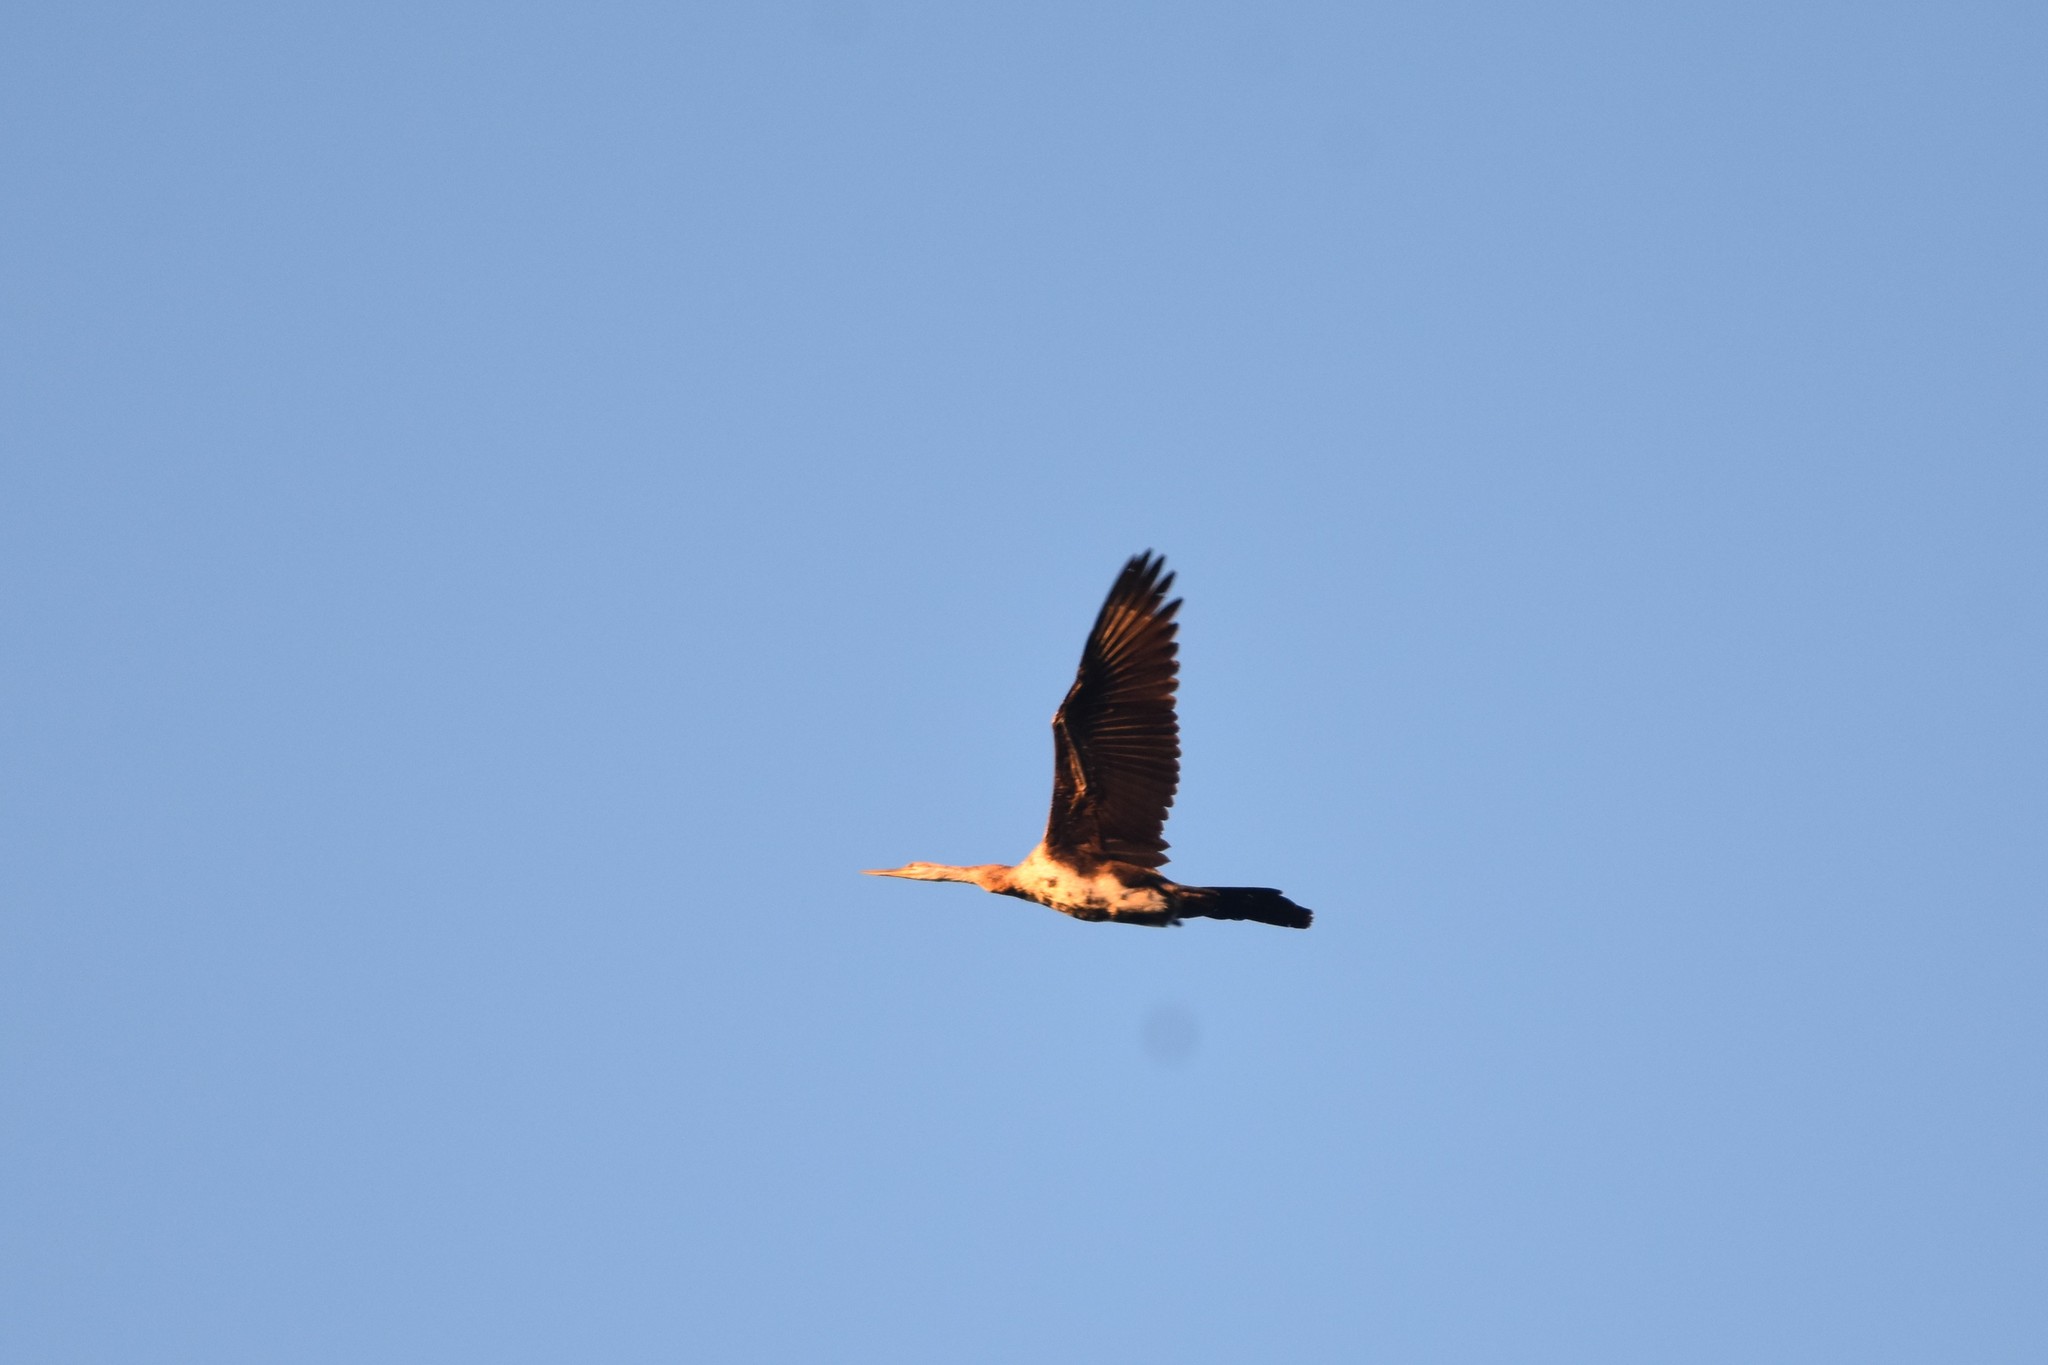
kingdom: Animalia
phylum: Chordata
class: Aves
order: Suliformes
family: Anhingidae
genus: Anhinga
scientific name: Anhinga rufa
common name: African darter
